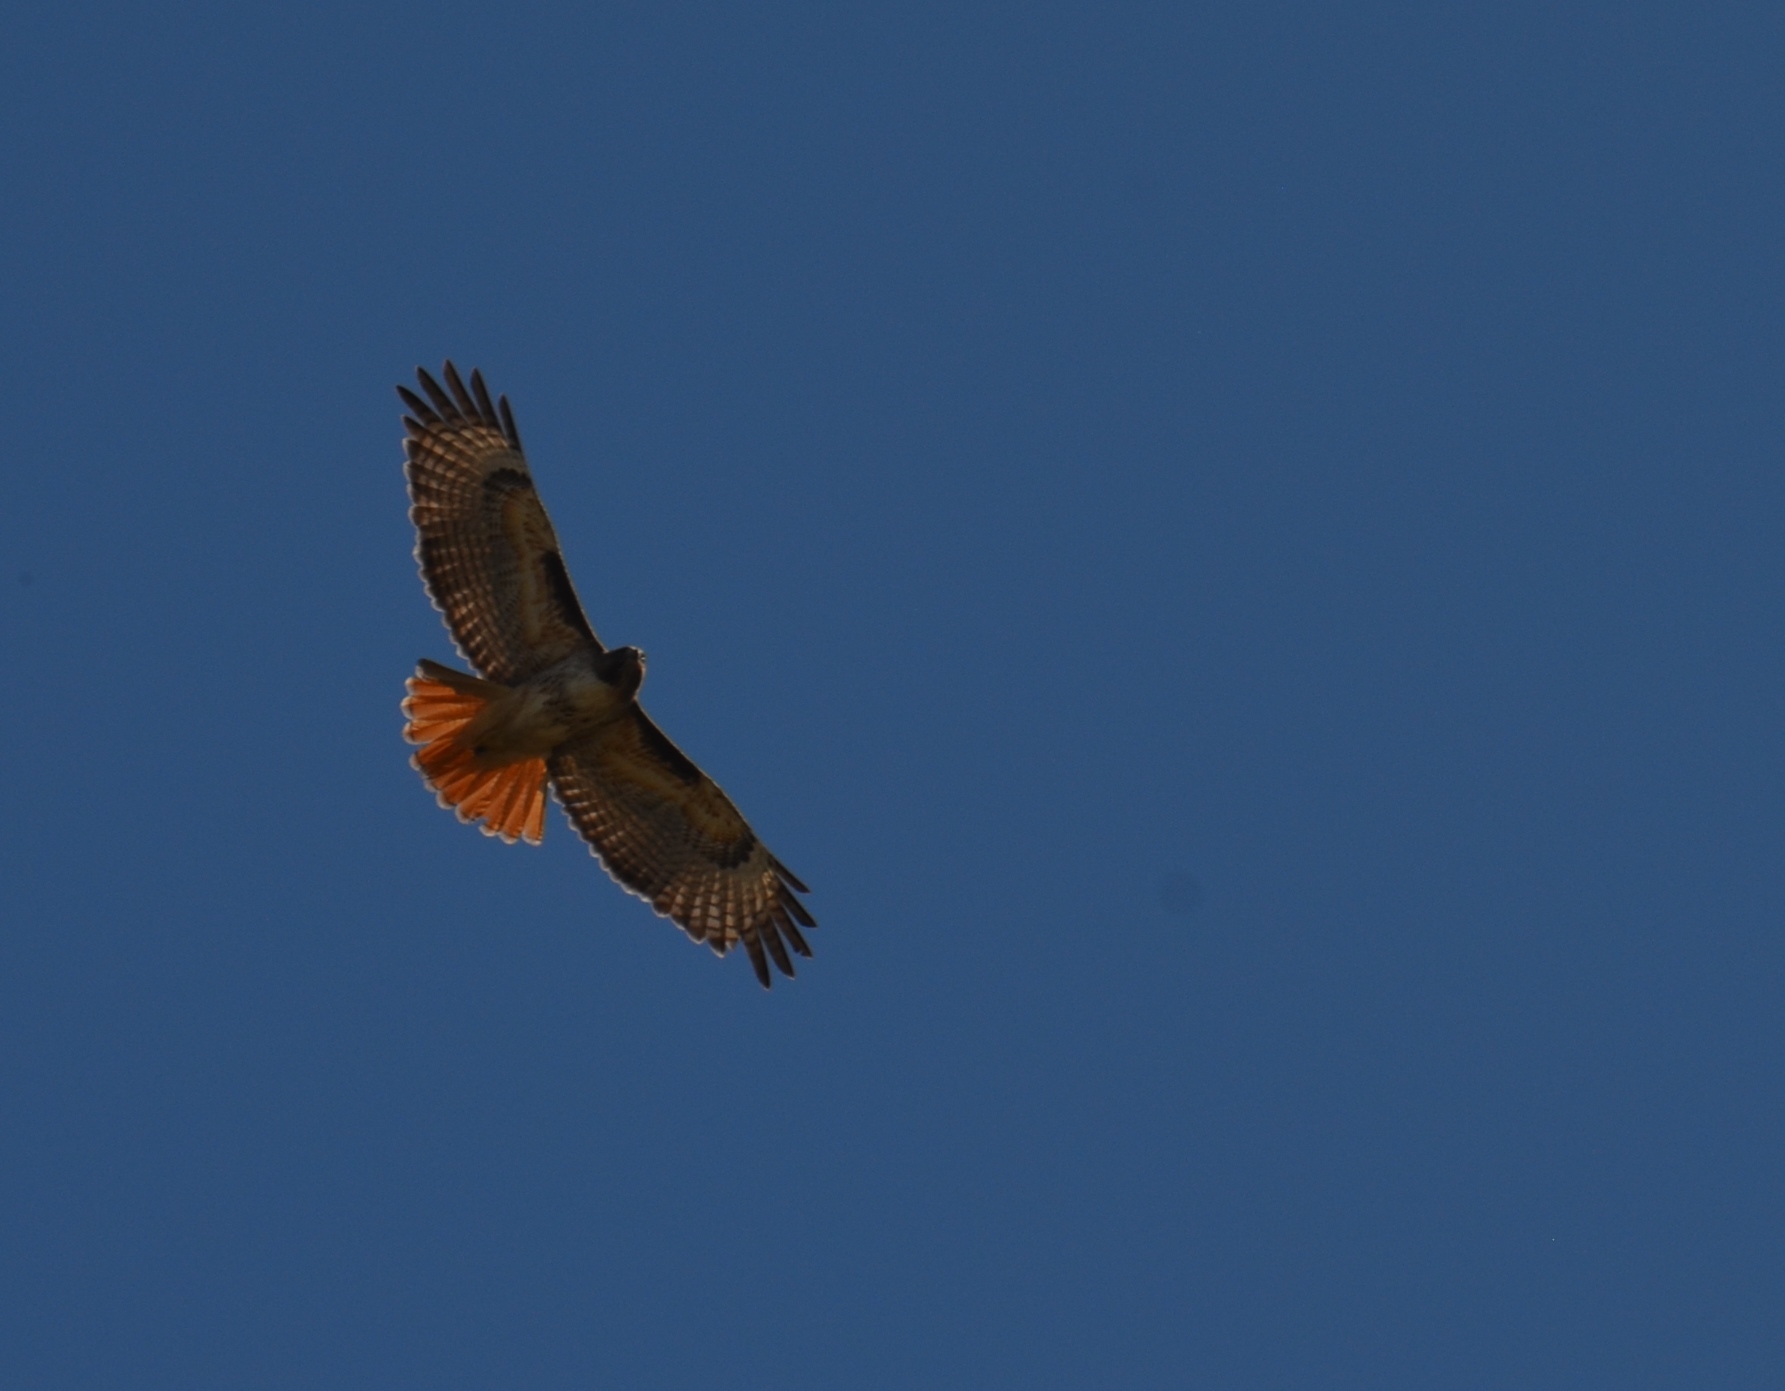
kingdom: Animalia
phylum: Chordata
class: Aves
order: Accipitriformes
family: Accipitridae
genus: Buteo
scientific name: Buteo jamaicensis
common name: Red-tailed hawk
